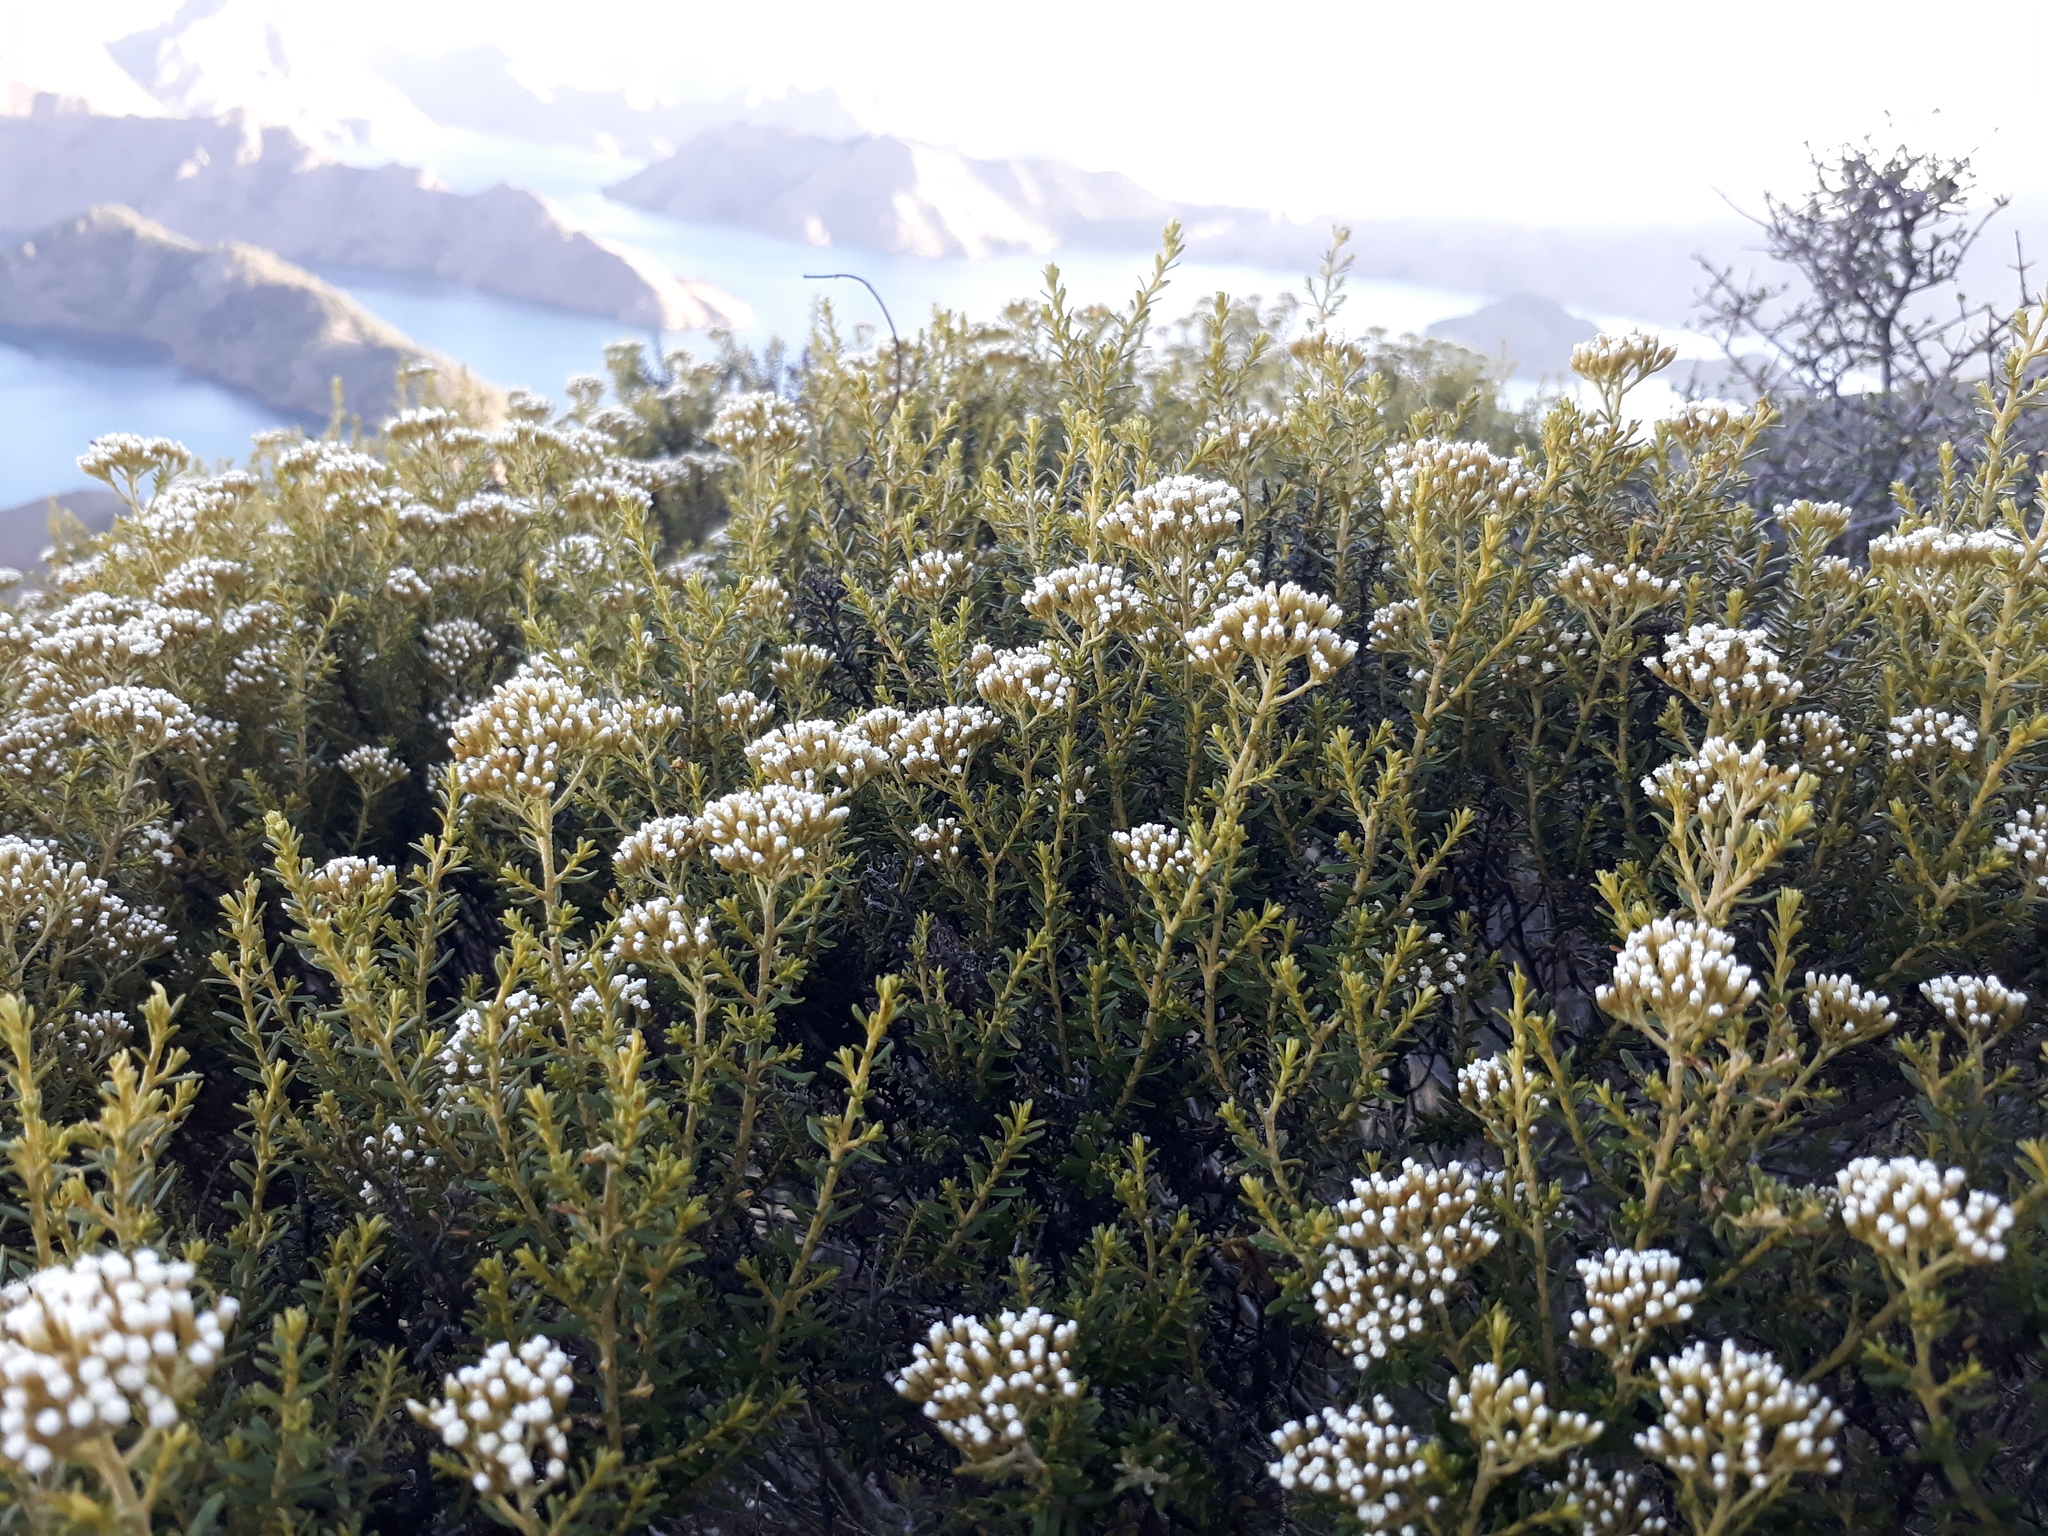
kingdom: Plantae
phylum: Tracheophyta
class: Magnoliopsida
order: Asterales
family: Asteraceae
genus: Ozothamnus
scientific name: Ozothamnus leptophyllus
